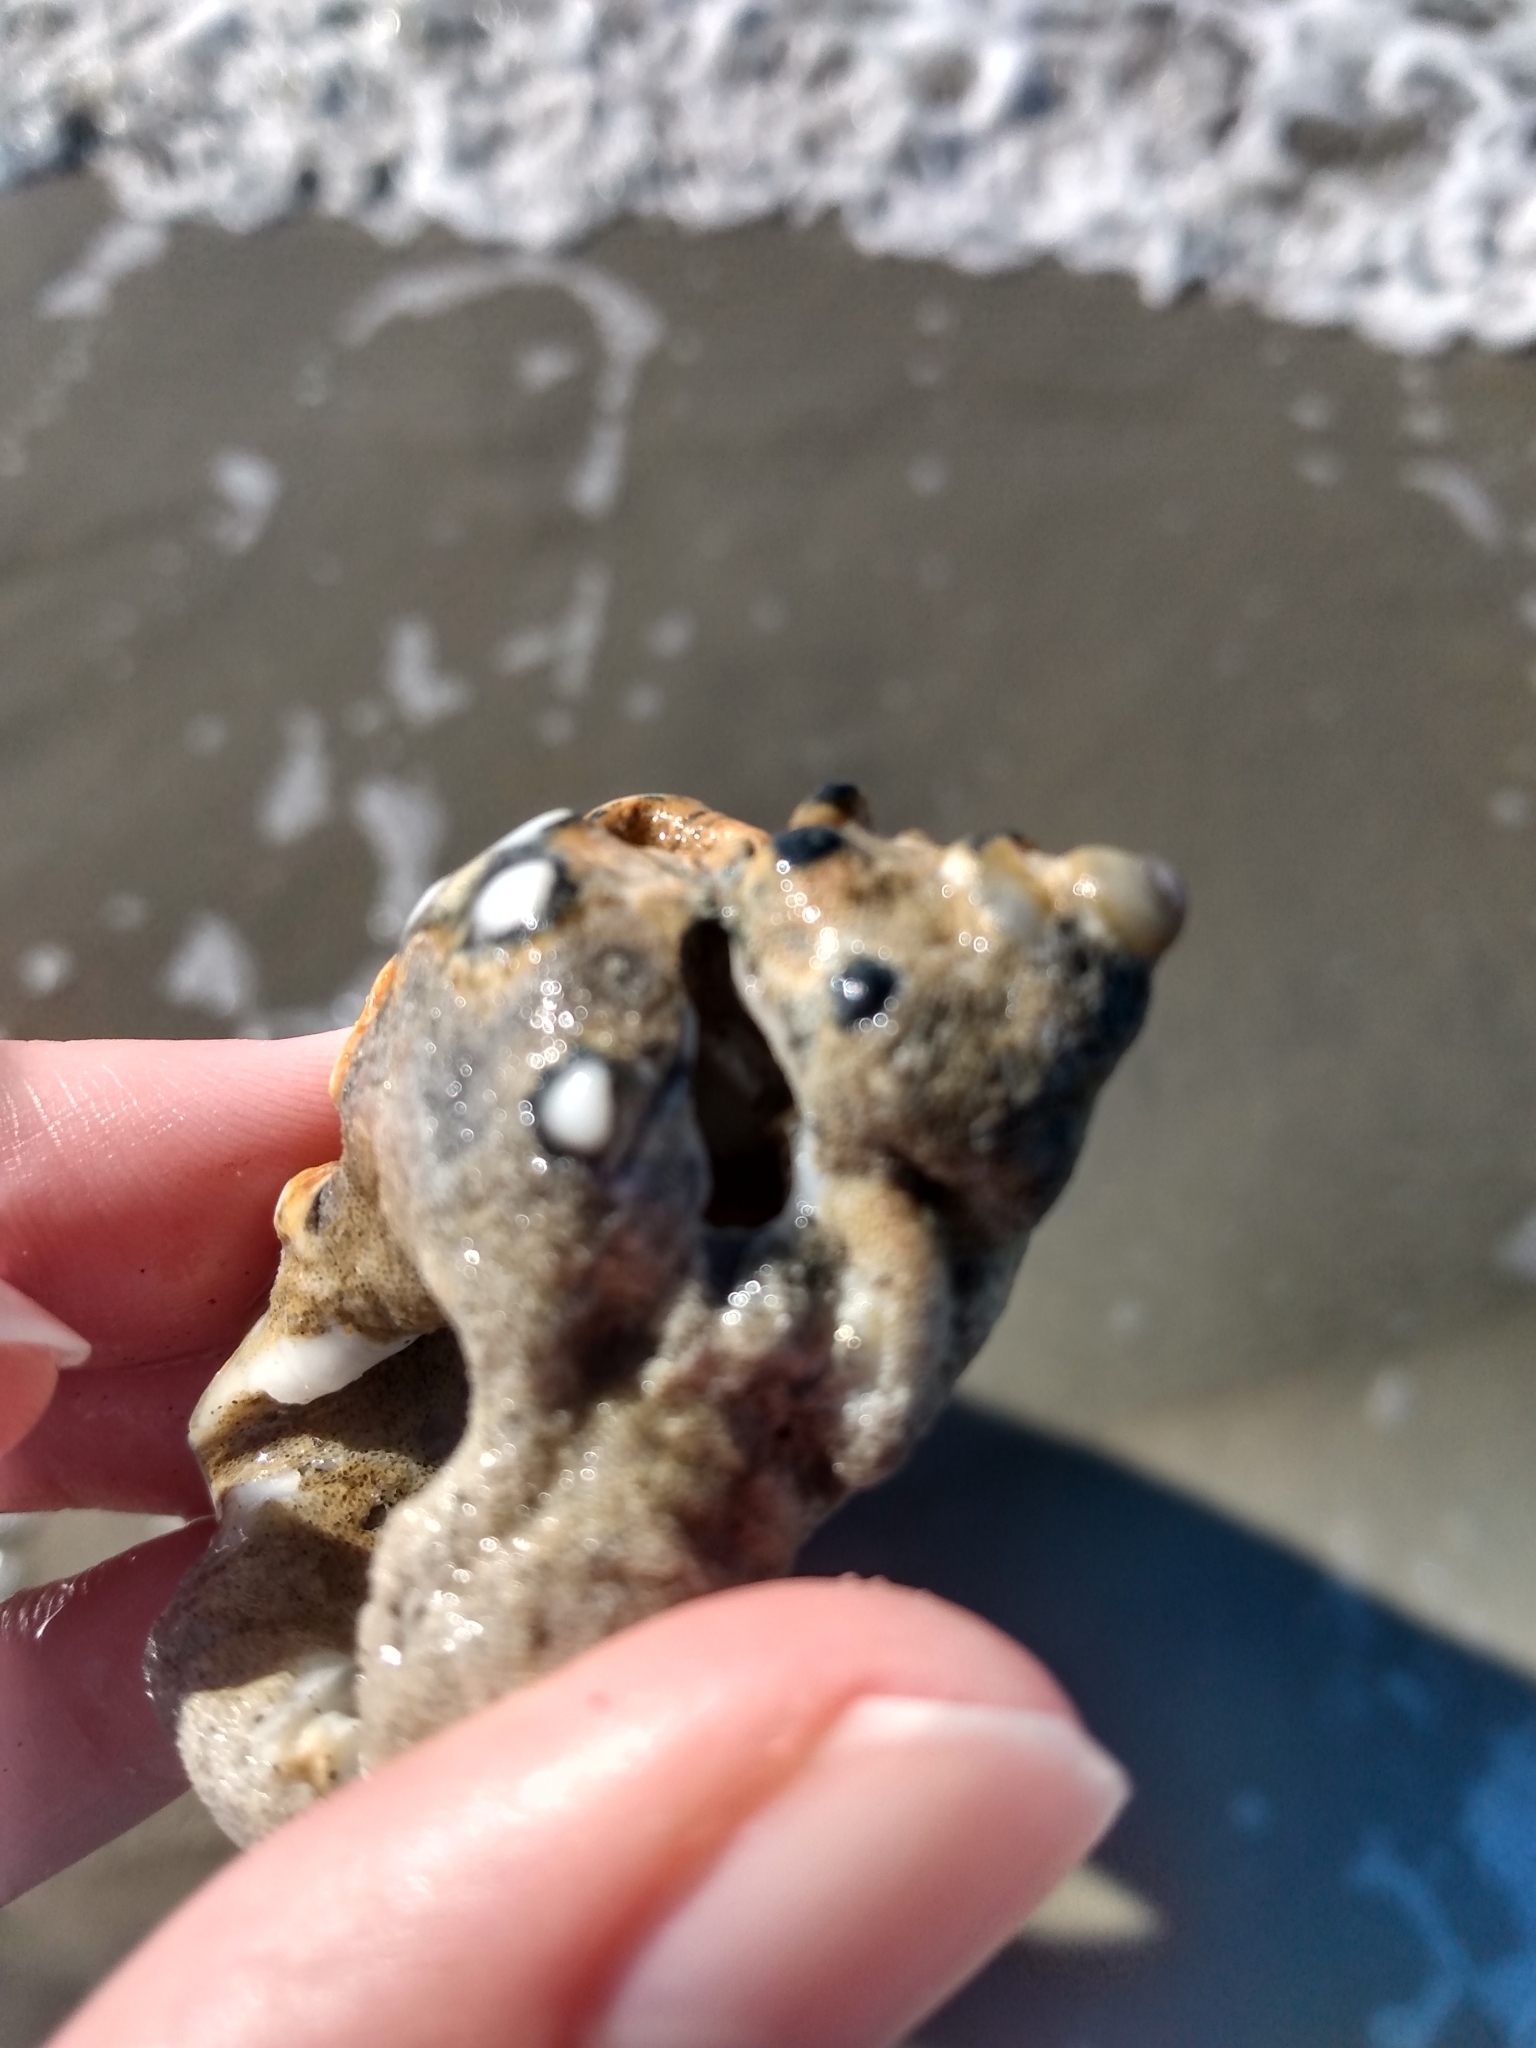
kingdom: Animalia
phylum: Mollusca
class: Gastropoda
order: Littorinimorpha
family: Bursidae
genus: Crossata
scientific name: Crossata californica
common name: California frogsnail
